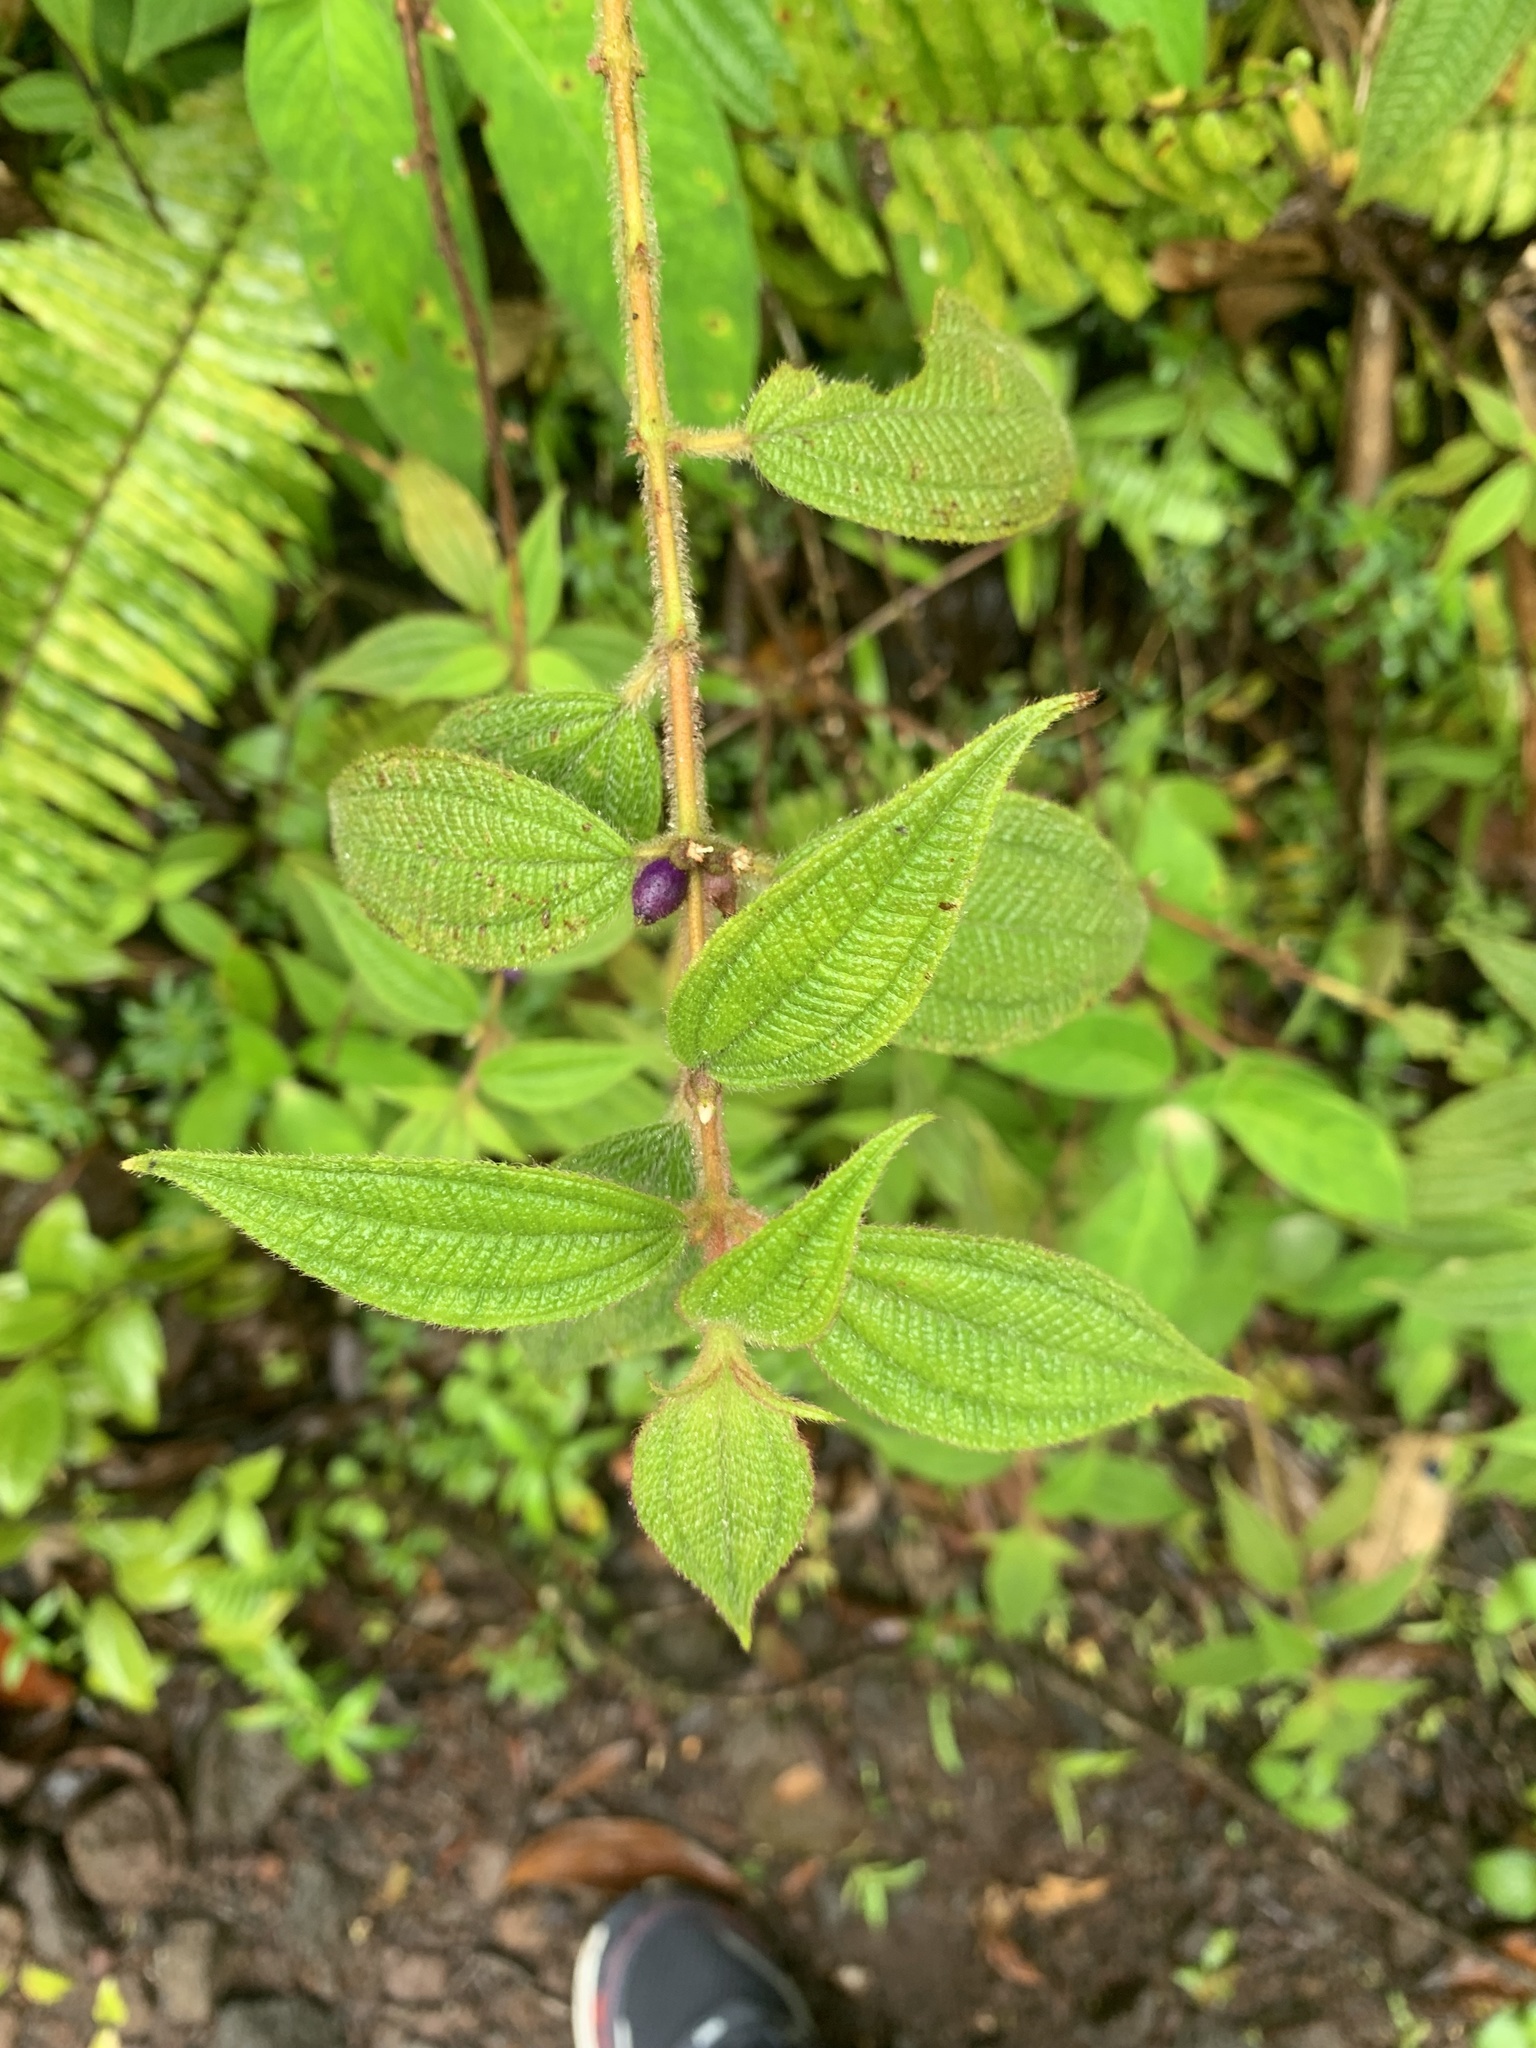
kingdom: Plantae
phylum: Tracheophyta
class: Magnoliopsida
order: Myrtales
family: Melastomataceae
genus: Miconia
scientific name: Miconia sericea
